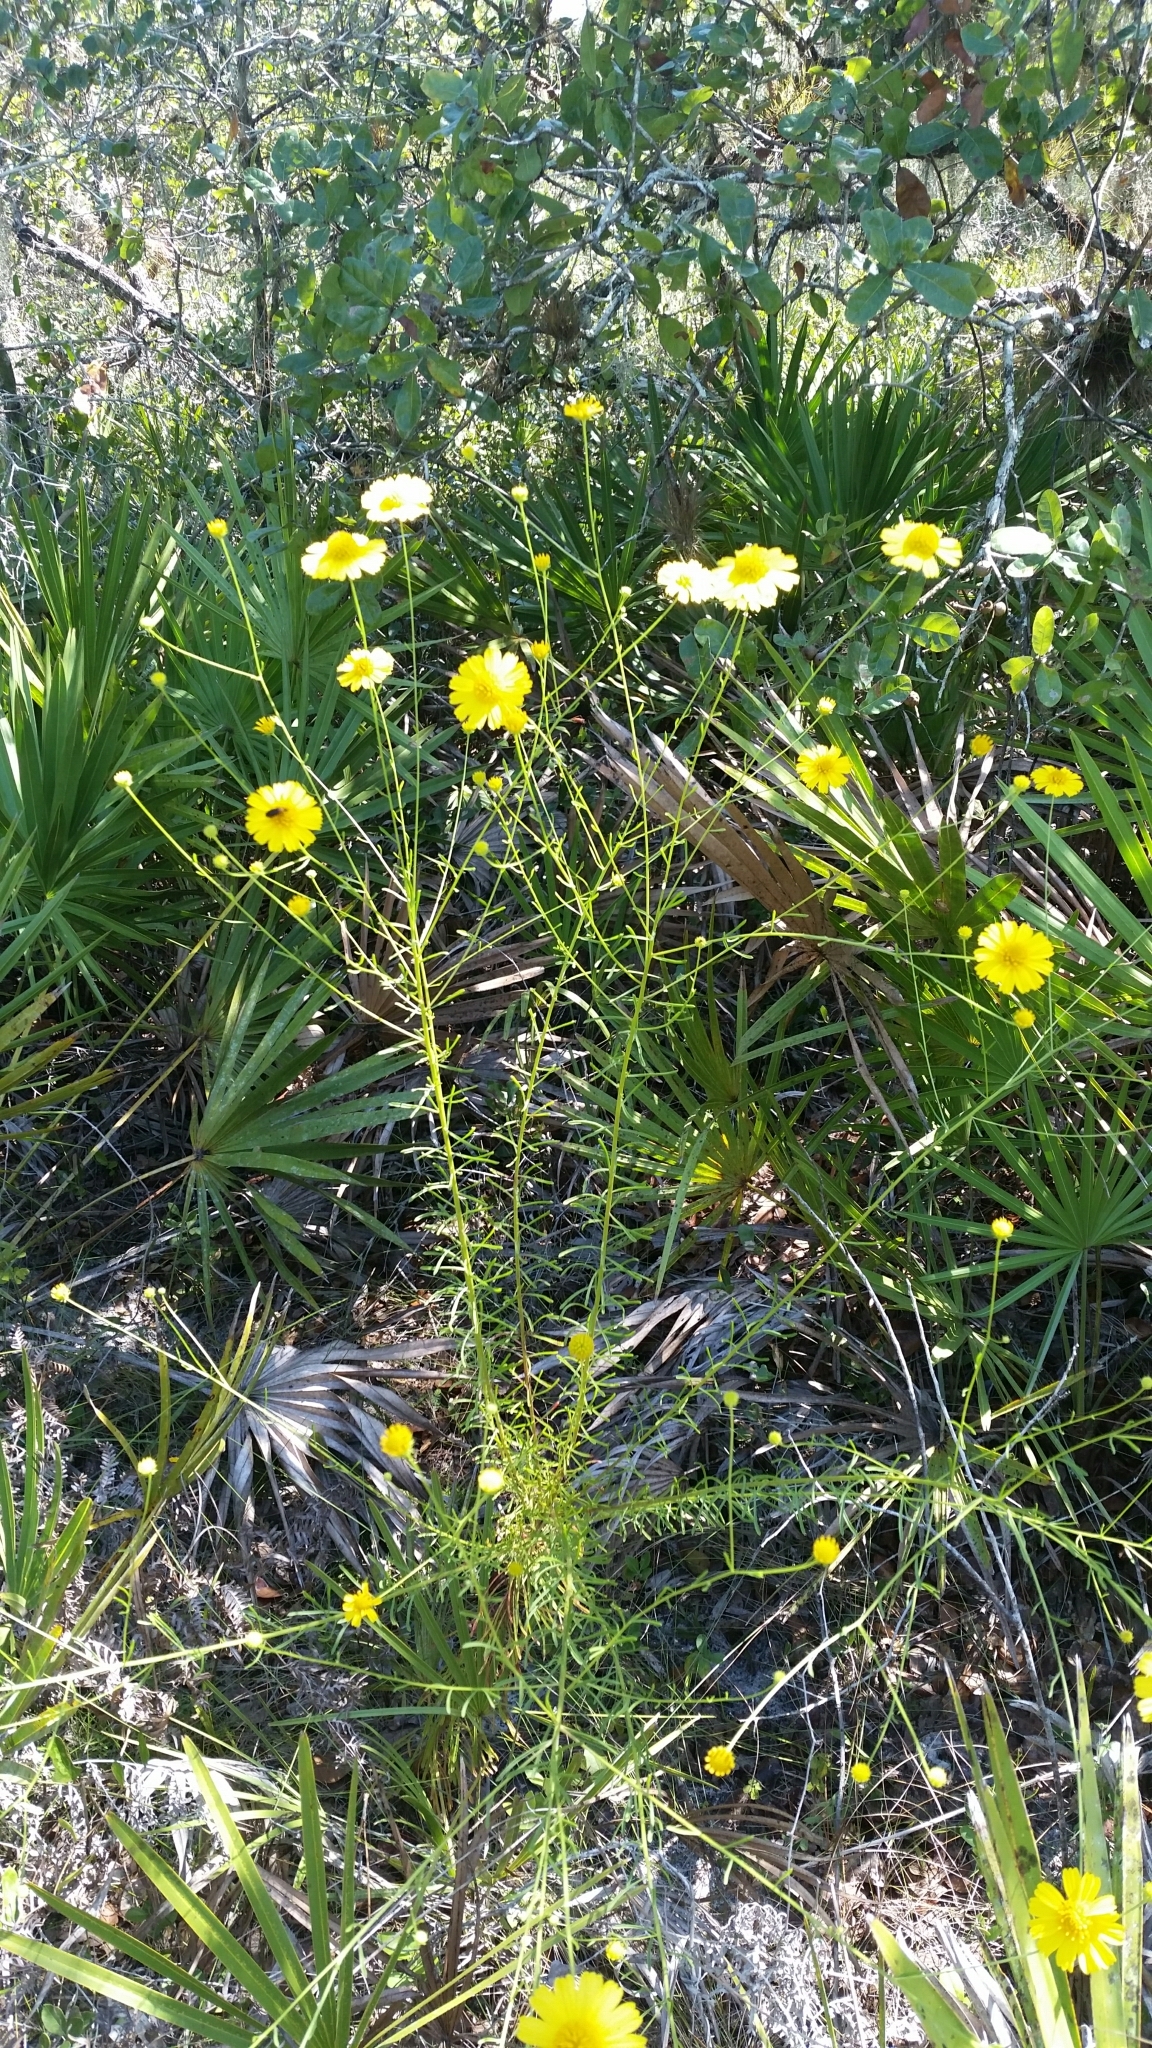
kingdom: Plantae
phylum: Tracheophyta
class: Magnoliopsida
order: Asterales
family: Asteraceae
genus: Balduina
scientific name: Balduina angustifolia
